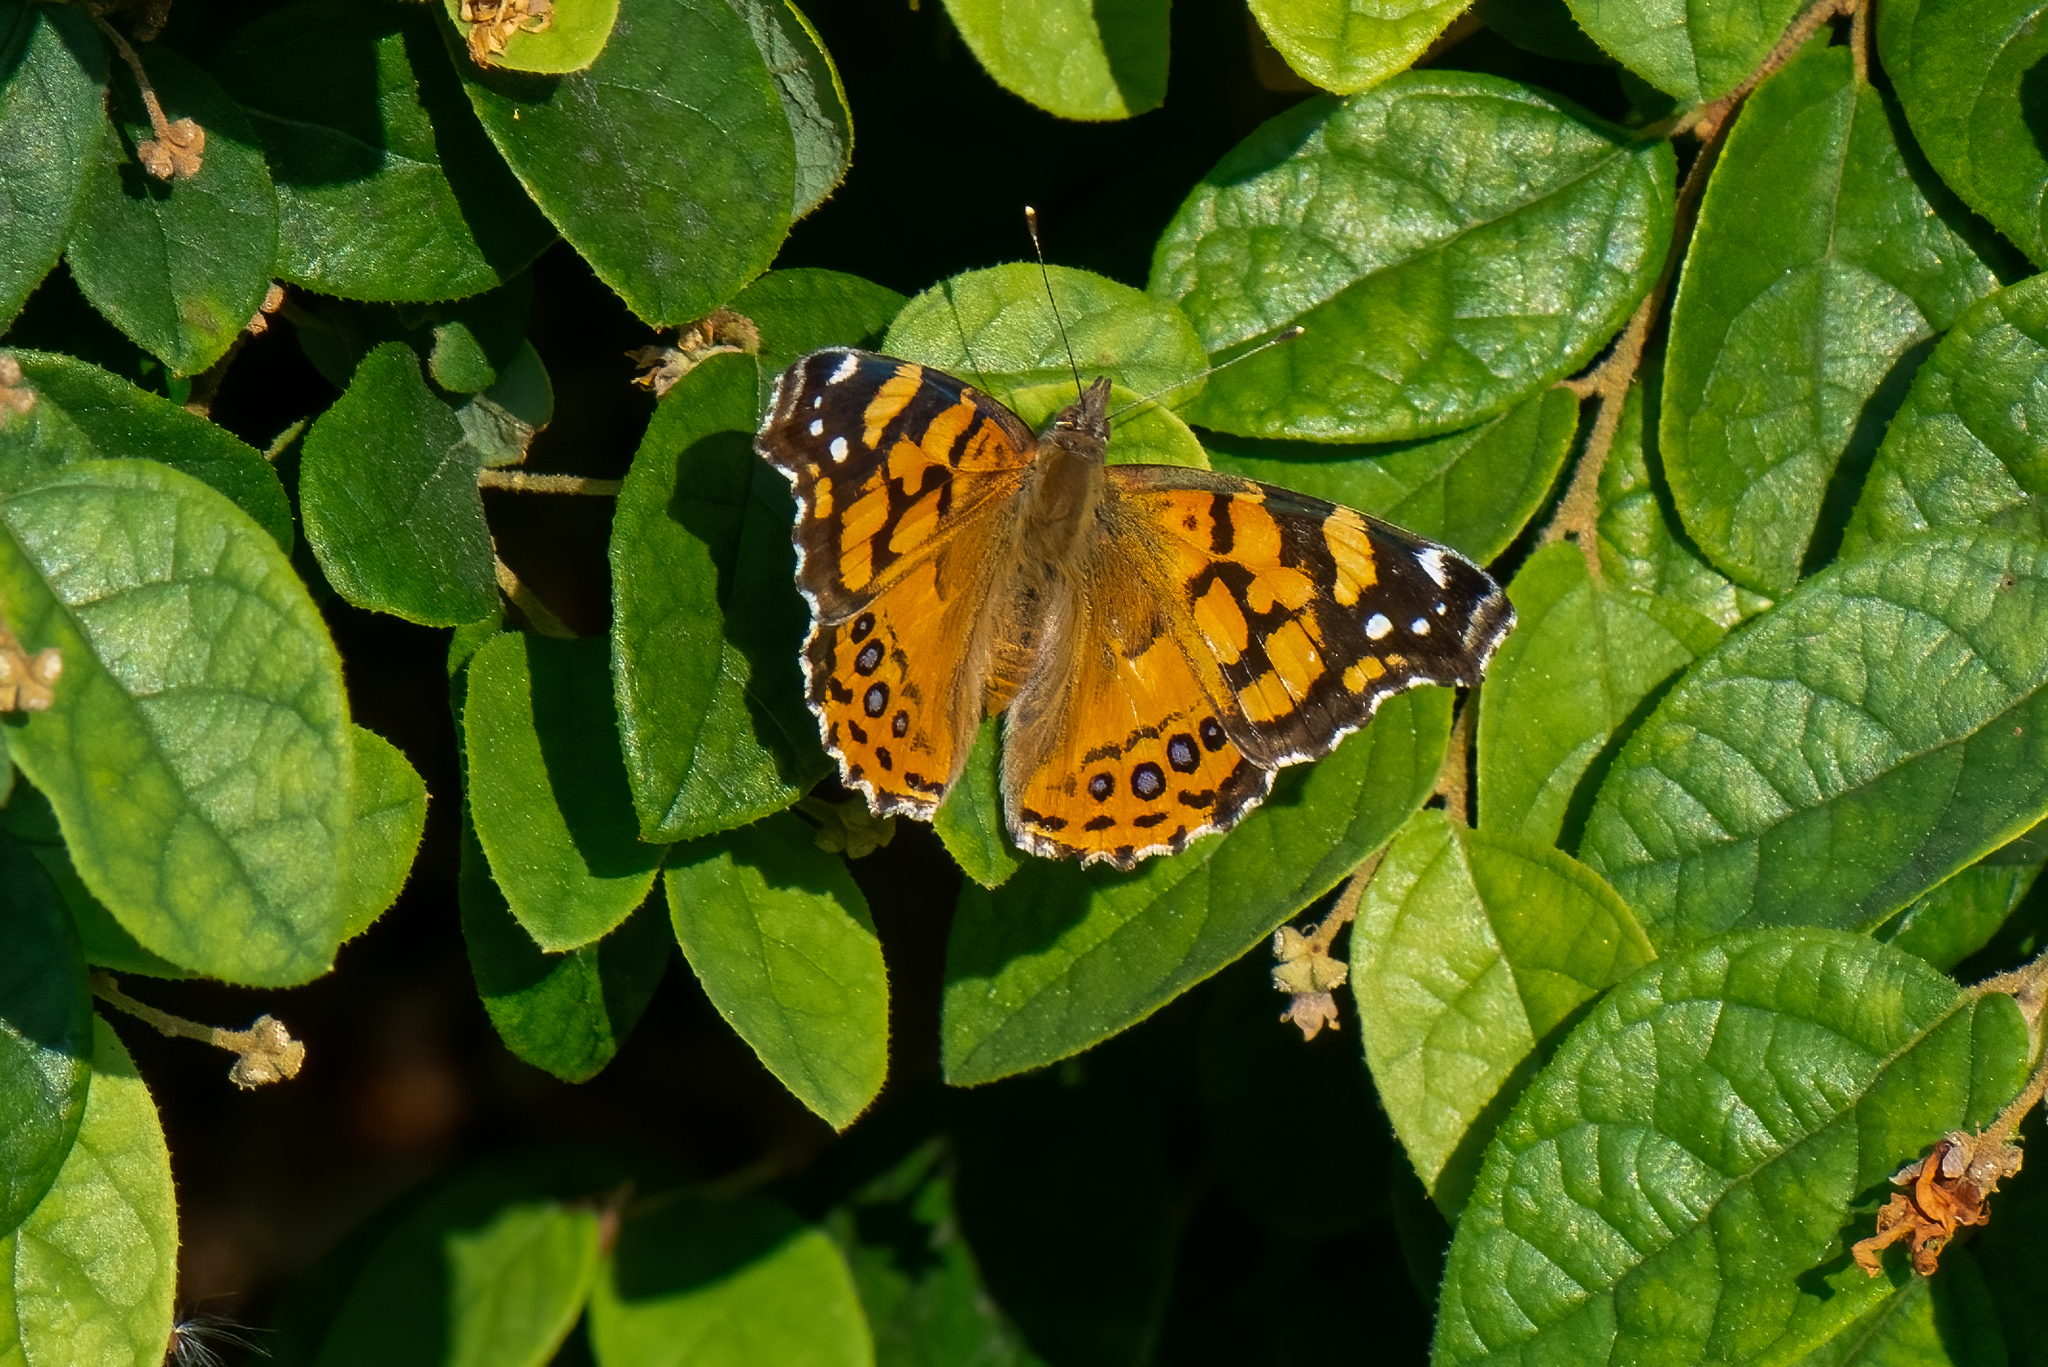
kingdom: Animalia
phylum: Arthropoda
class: Insecta
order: Lepidoptera
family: Nymphalidae
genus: Vanessa
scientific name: Vanessa annabella
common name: West coast lady
